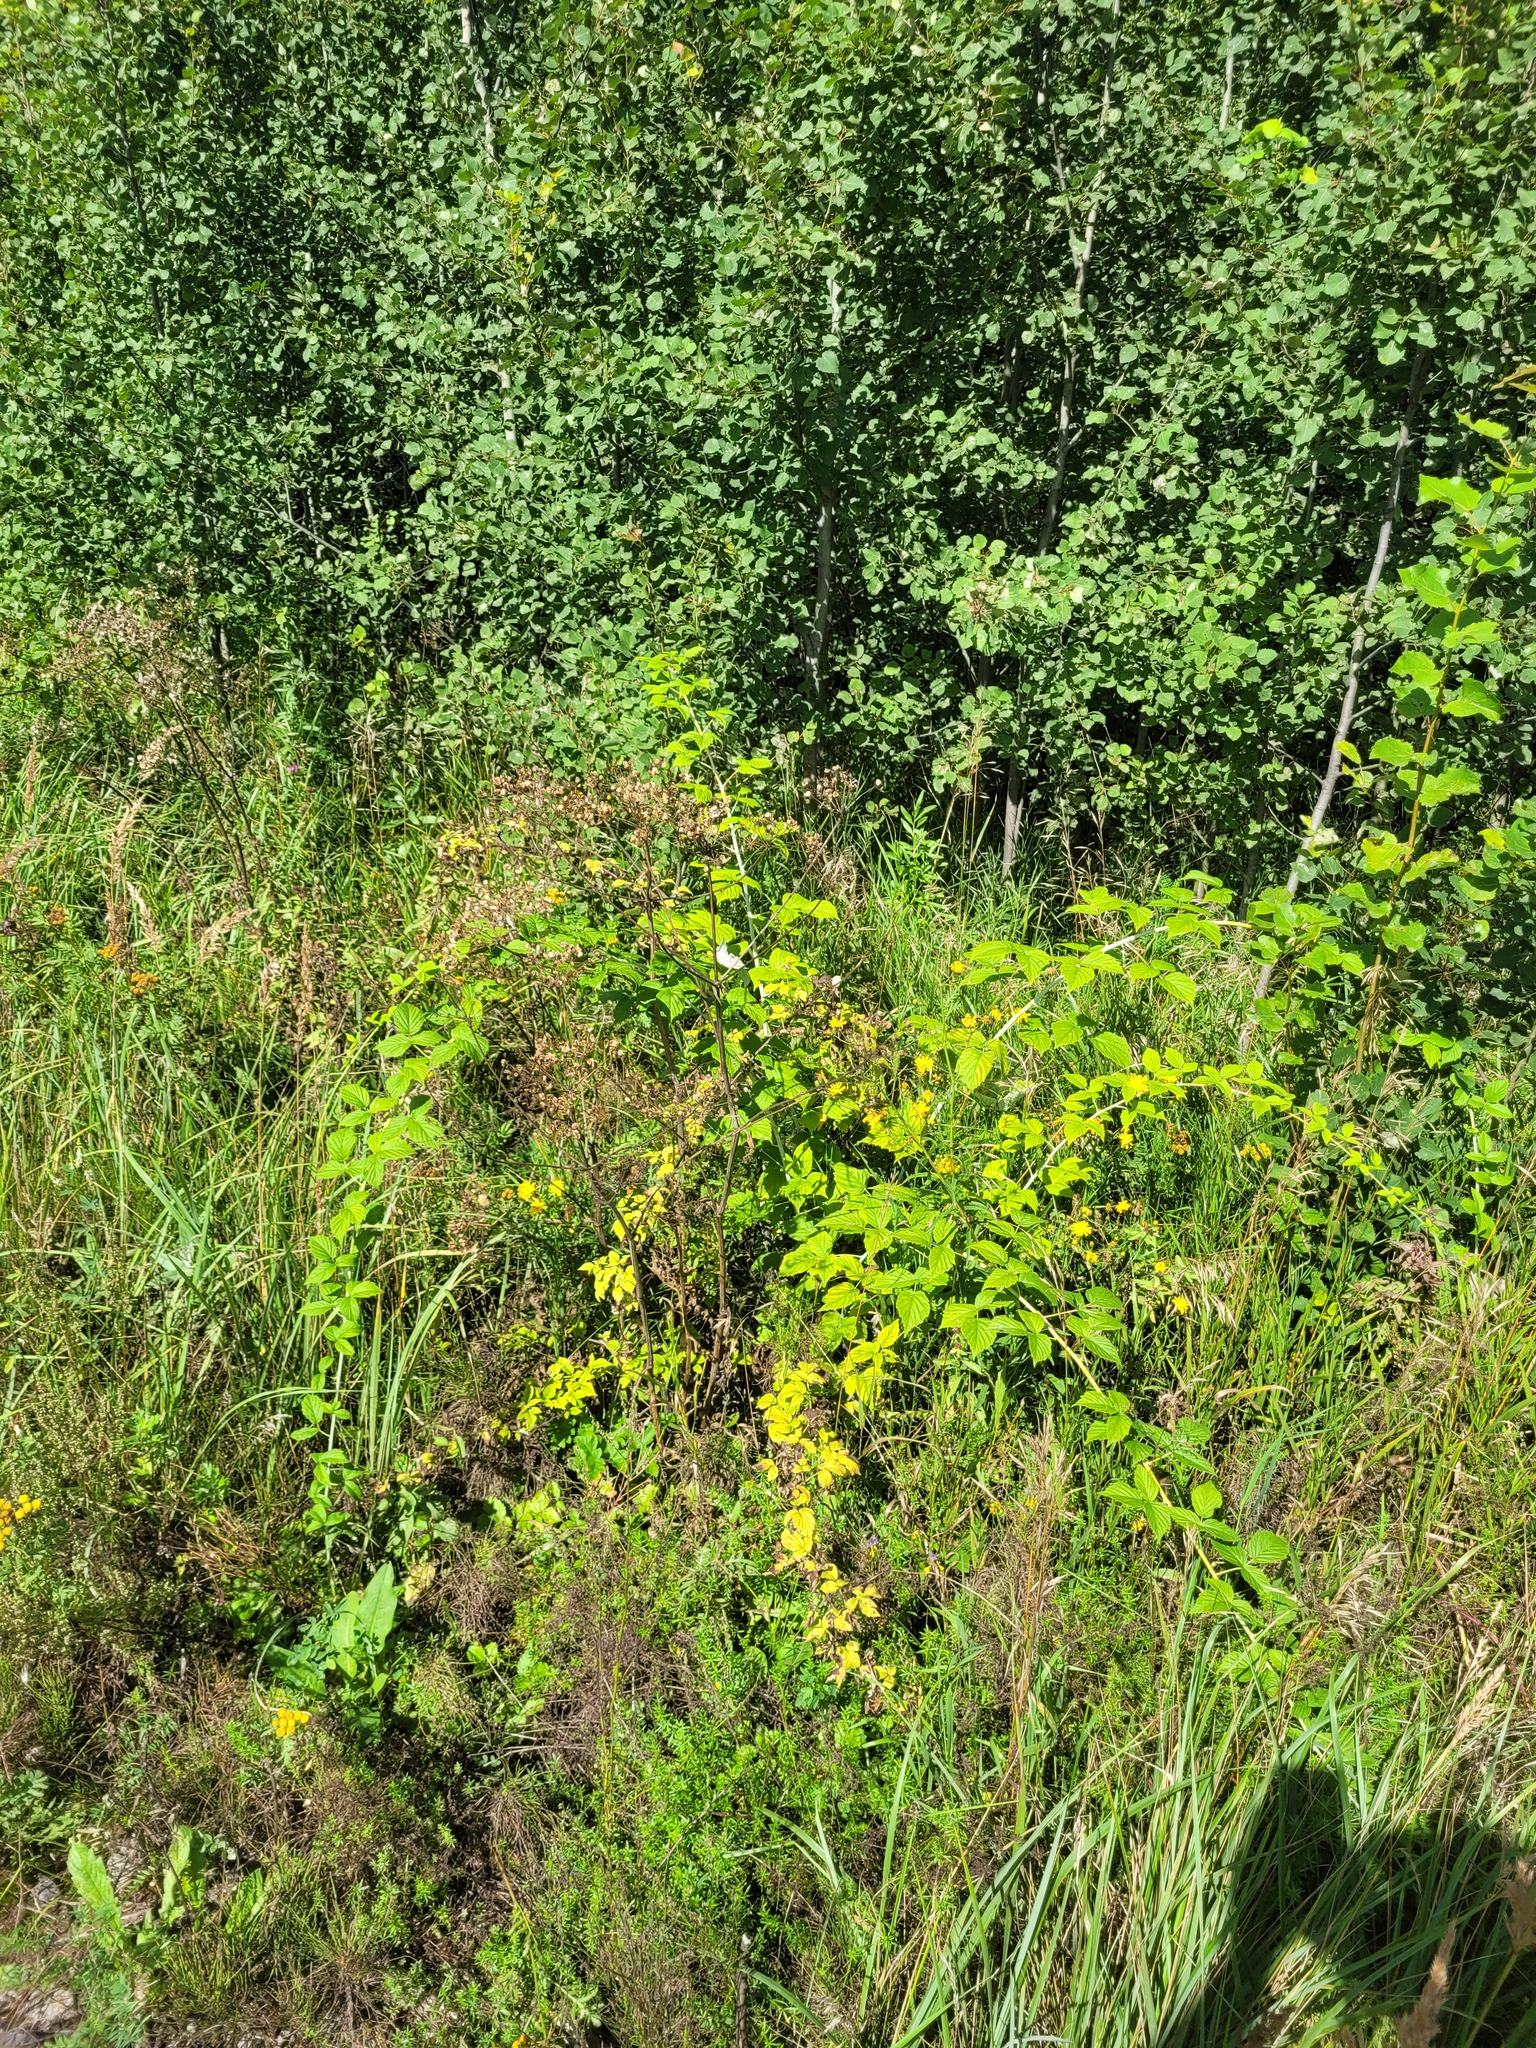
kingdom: Plantae
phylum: Tracheophyta
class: Magnoliopsida
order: Rosales
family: Rosaceae
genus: Rubus
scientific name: Rubus occidentalis
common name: Black raspberry
